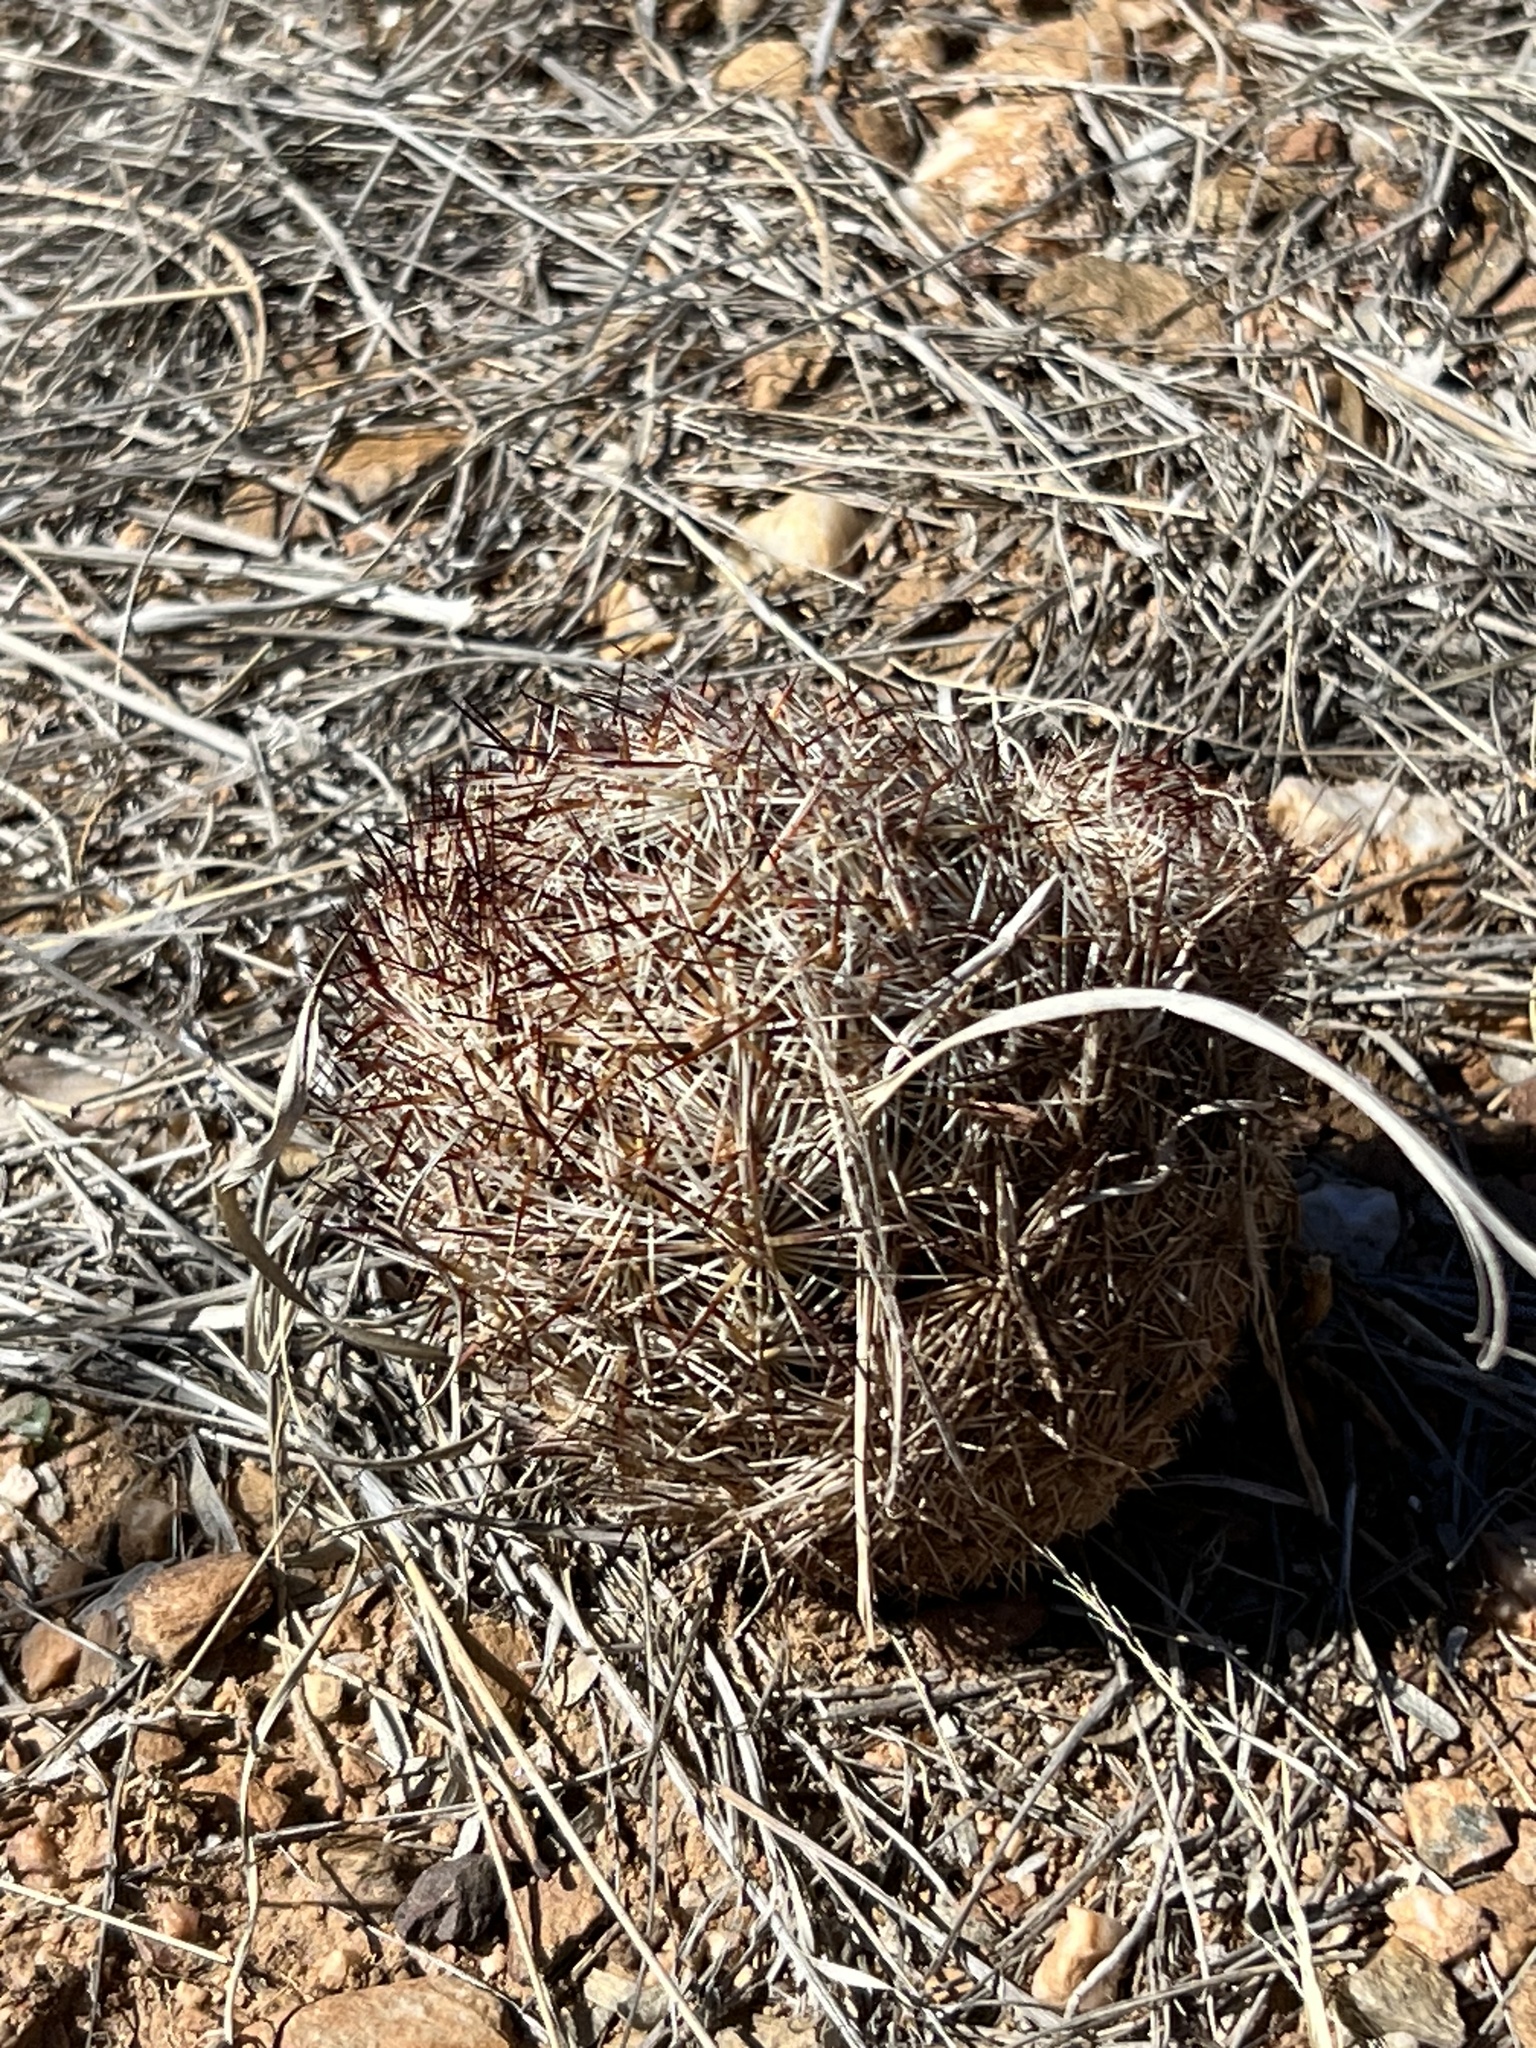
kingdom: Plantae
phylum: Tracheophyta
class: Magnoliopsida
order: Caryophyllales
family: Cactaceae
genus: Sclerocactus
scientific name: Sclerocactus intertextus
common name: White fish-hook cactus
